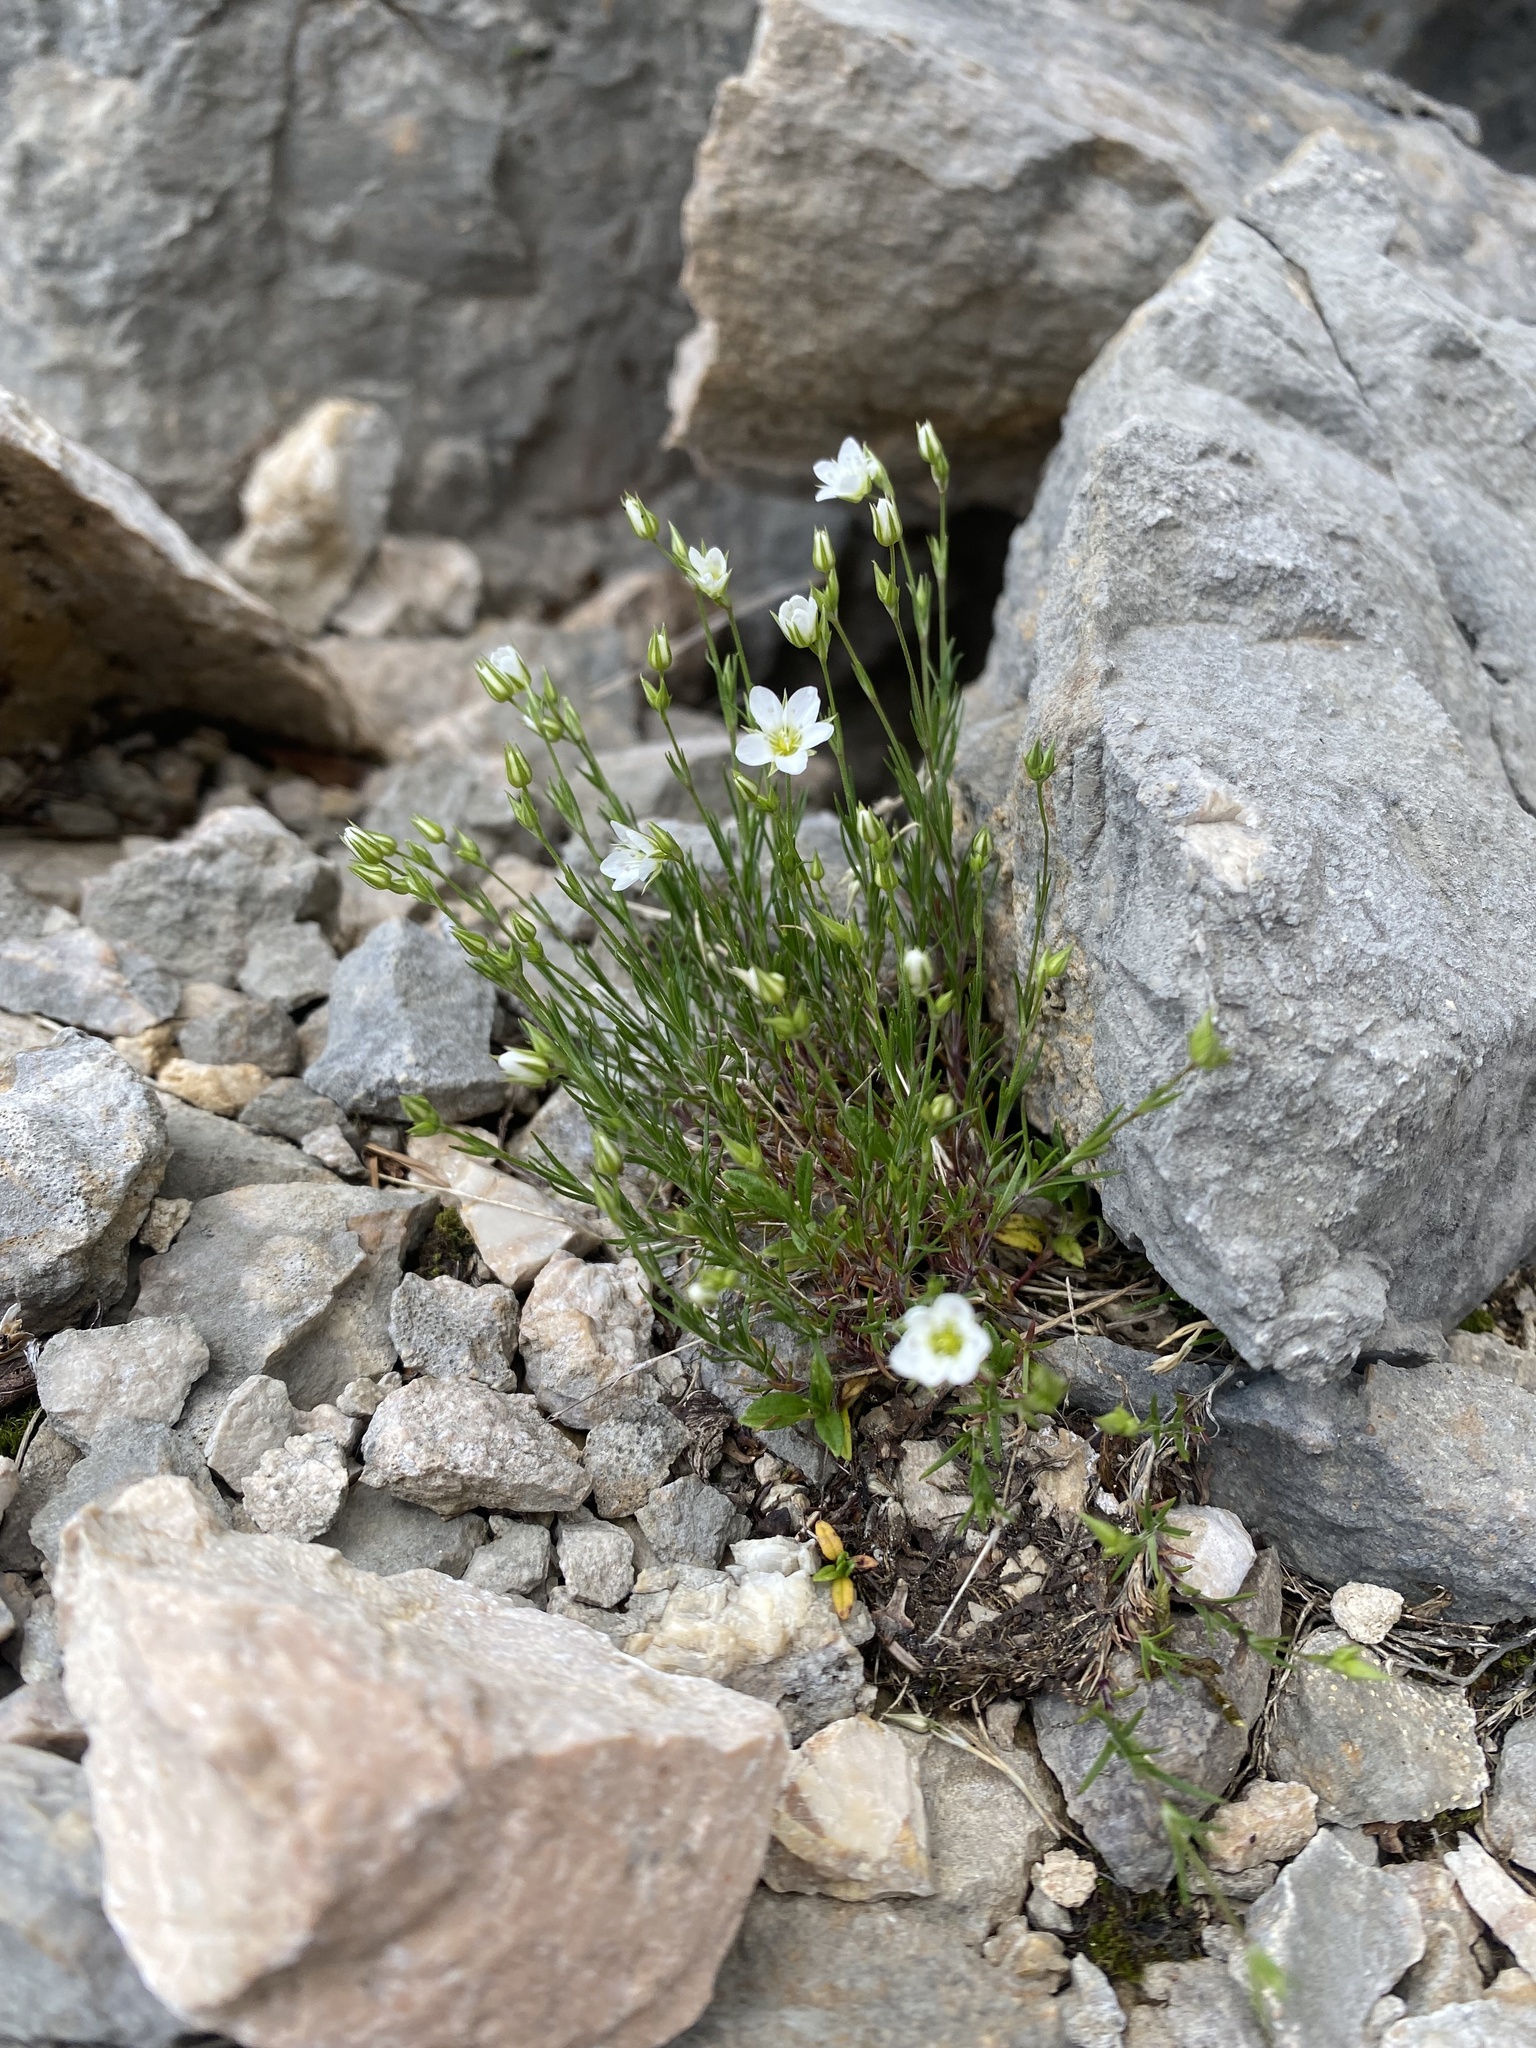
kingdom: Plantae
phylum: Tracheophyta
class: Magnoliopsida
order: Caryophyllales
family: Caryophyllaceae
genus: Minuartia
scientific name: Minuartia buschiana
